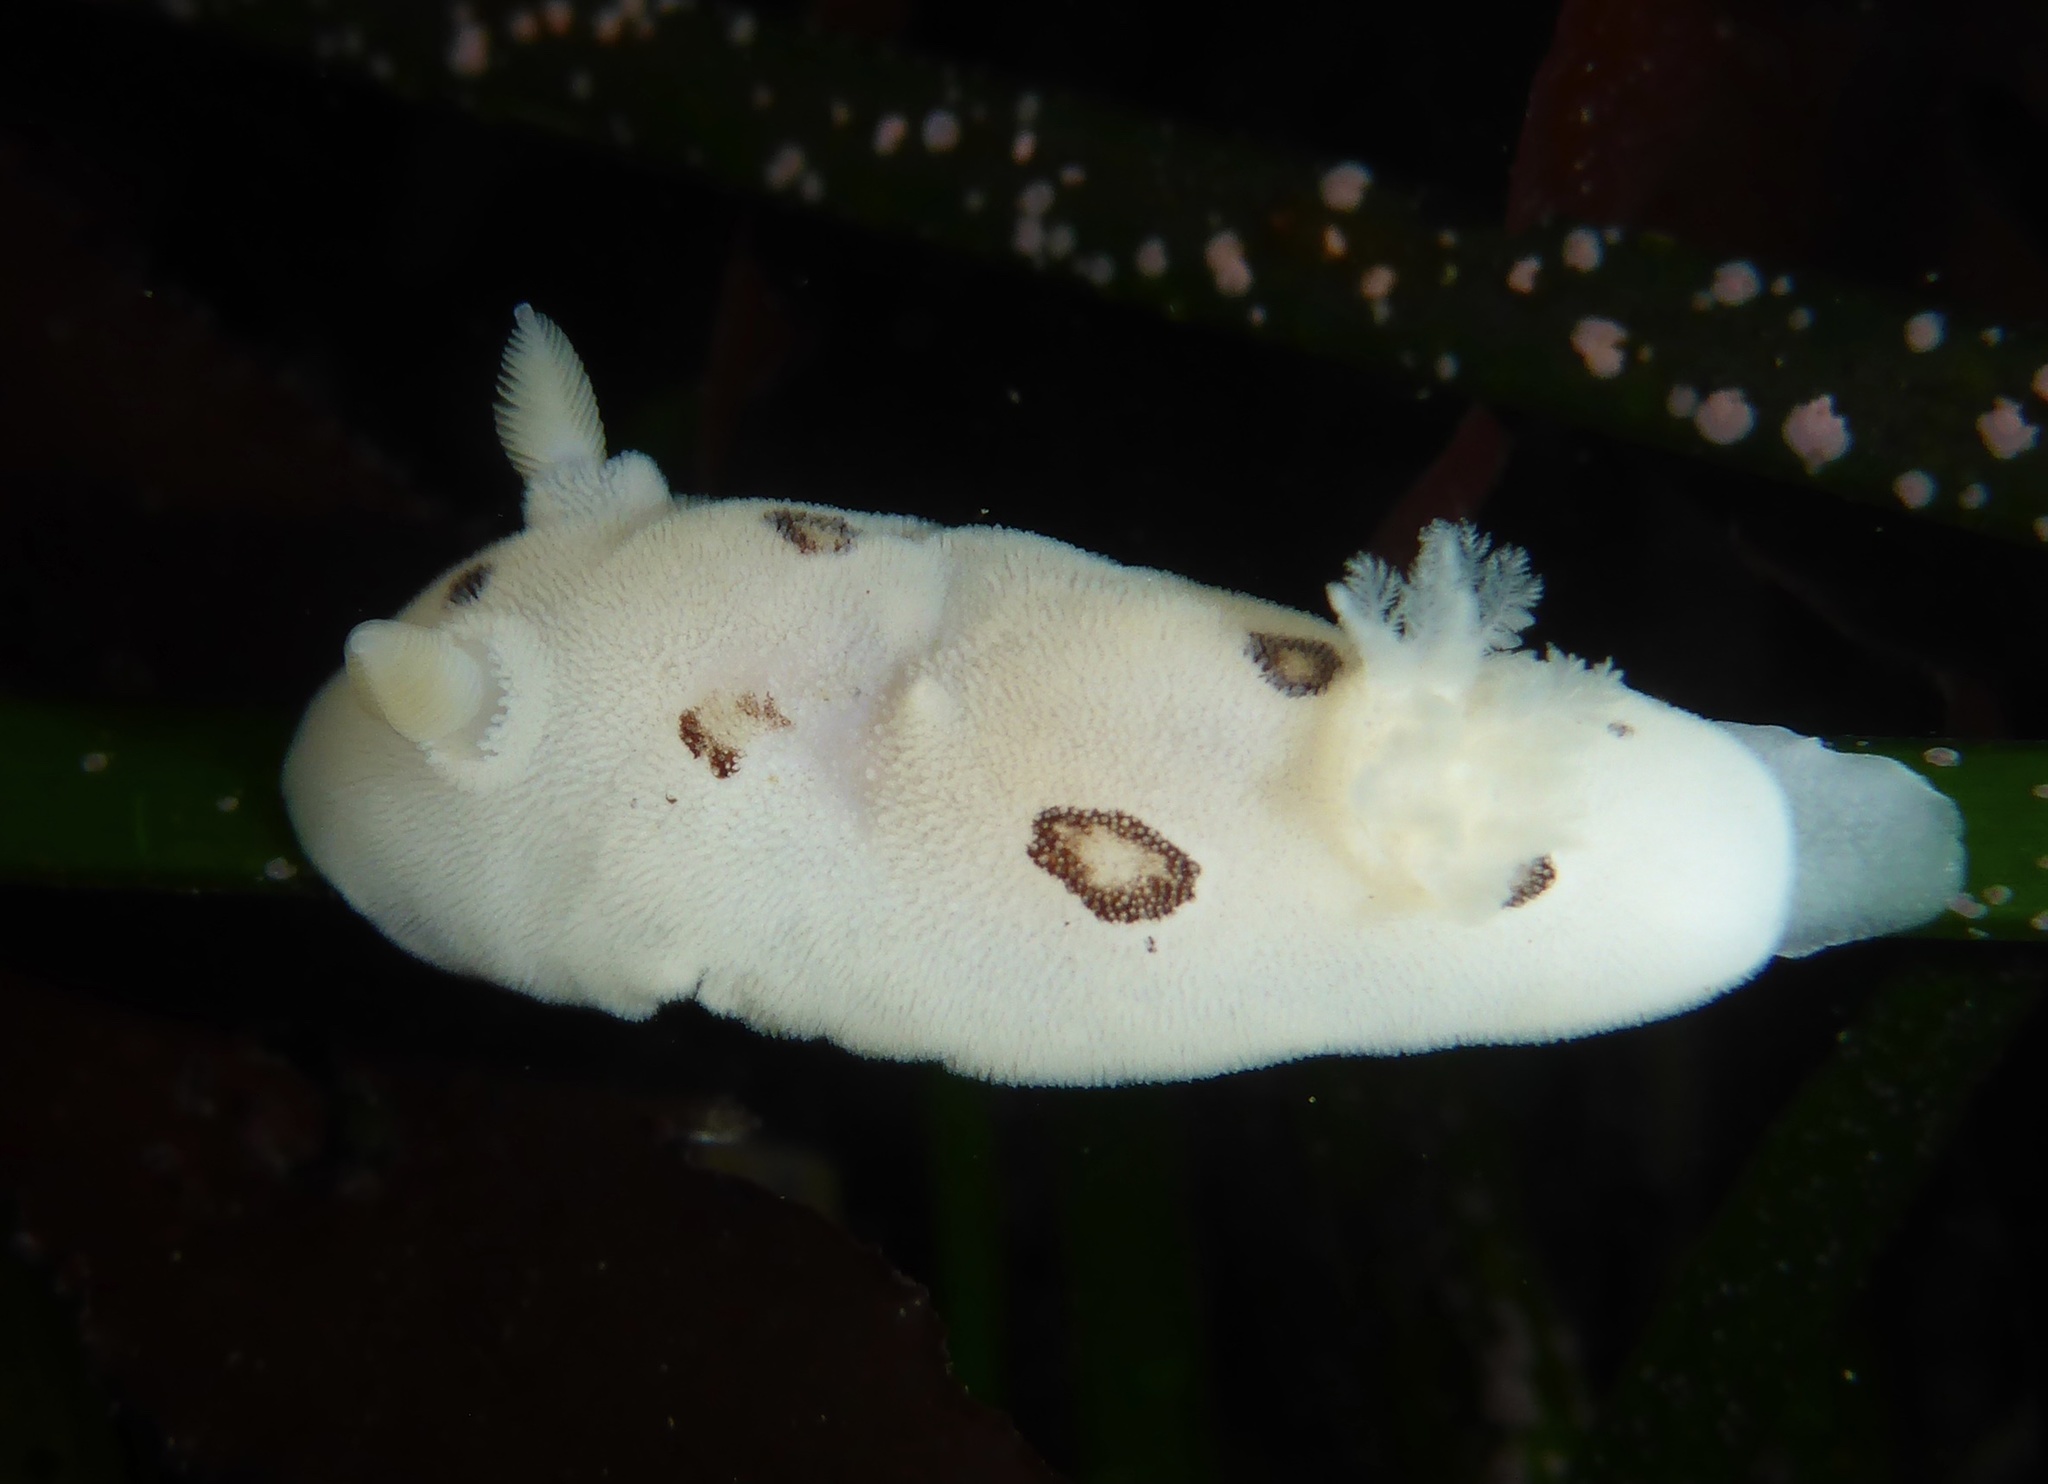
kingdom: Animalia
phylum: Mollusca
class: Gastropoda
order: Nudibranchia
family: Discodorididae
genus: Diaulula
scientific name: Diaulula sandiegensis
